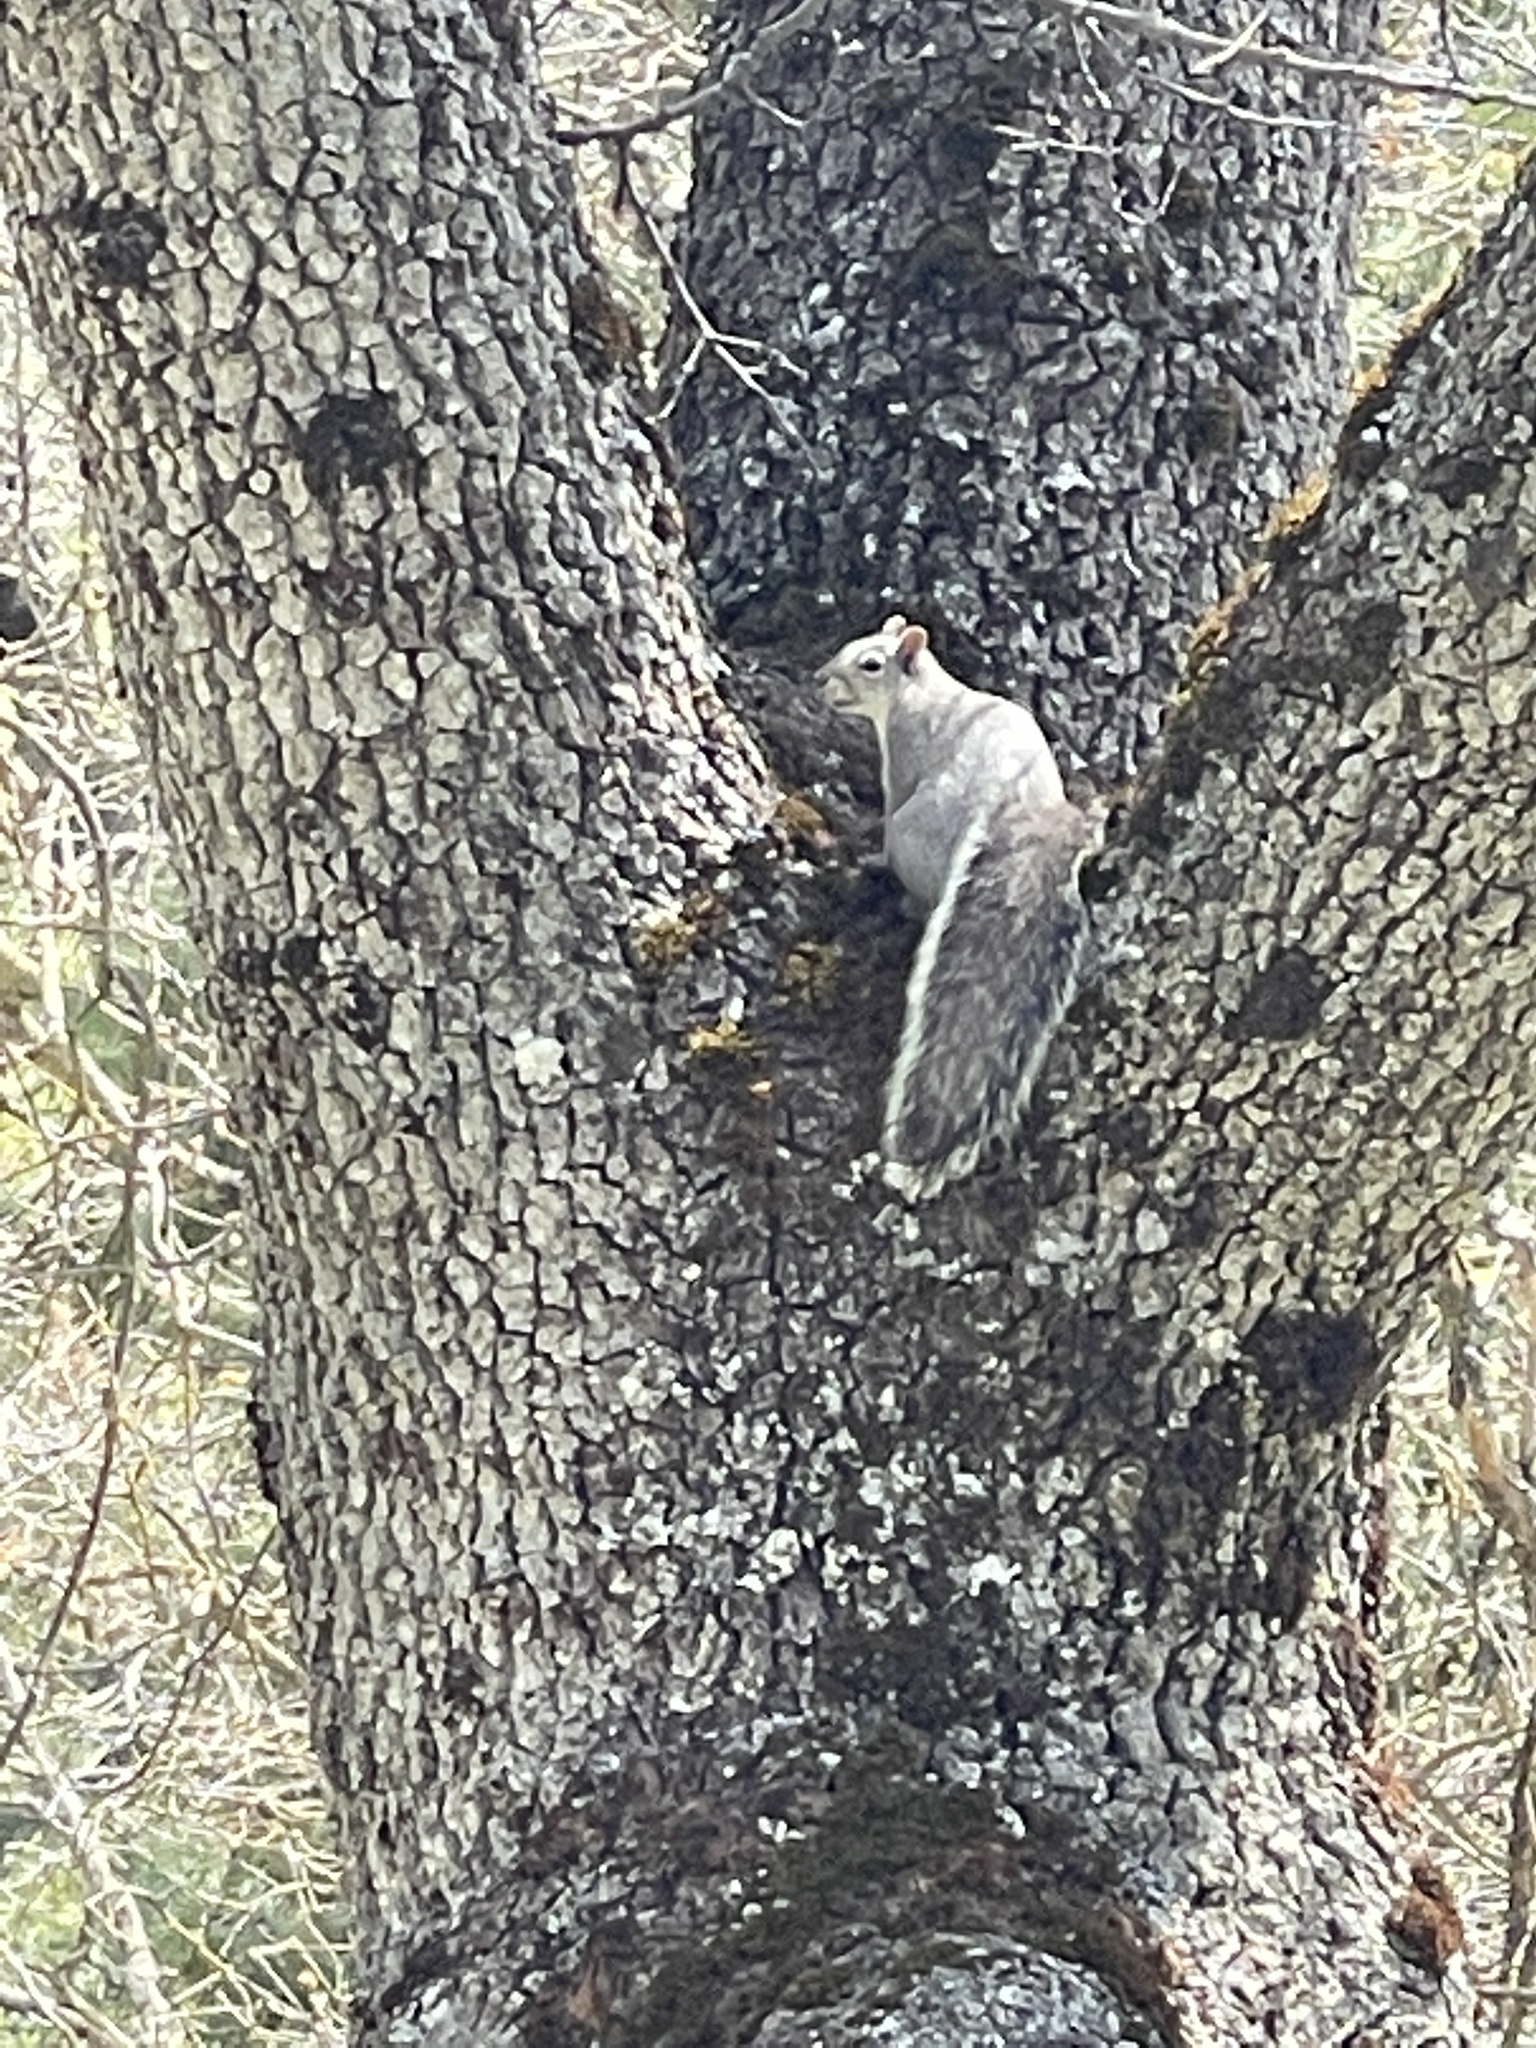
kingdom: Animalia
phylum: Chordata
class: Mammalia
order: Rodentia
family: Sciuridae
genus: Sciurus
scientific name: Sciurus griseus
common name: Western gray squirrel
